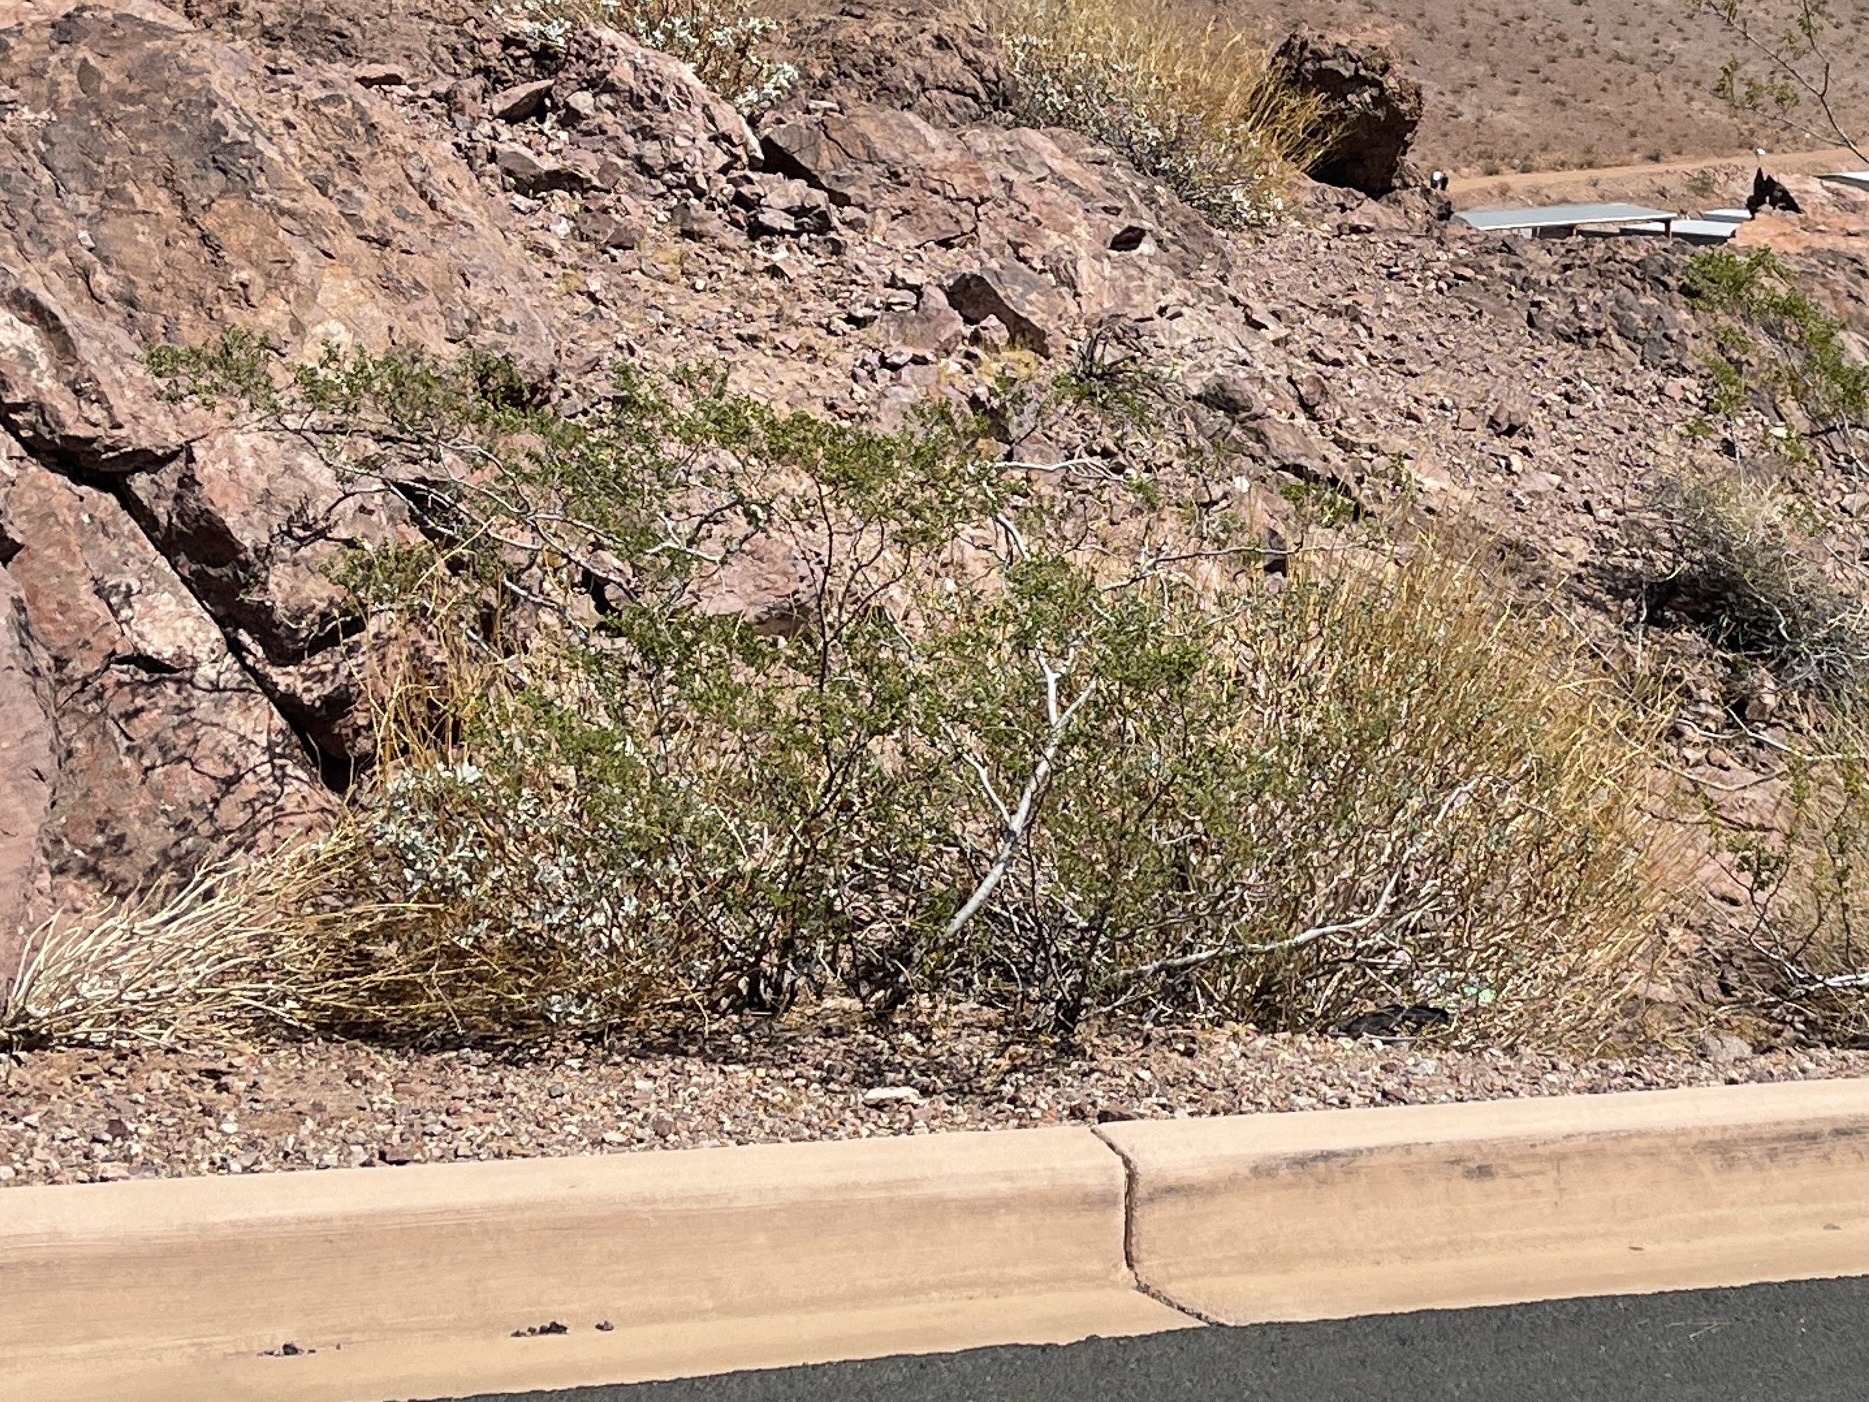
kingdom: Plantae
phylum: Tracheophyta
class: Magnoliopsida
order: Zygophyllales
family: Zygophyllaceae
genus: Larrea
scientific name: Larrea tridentata
